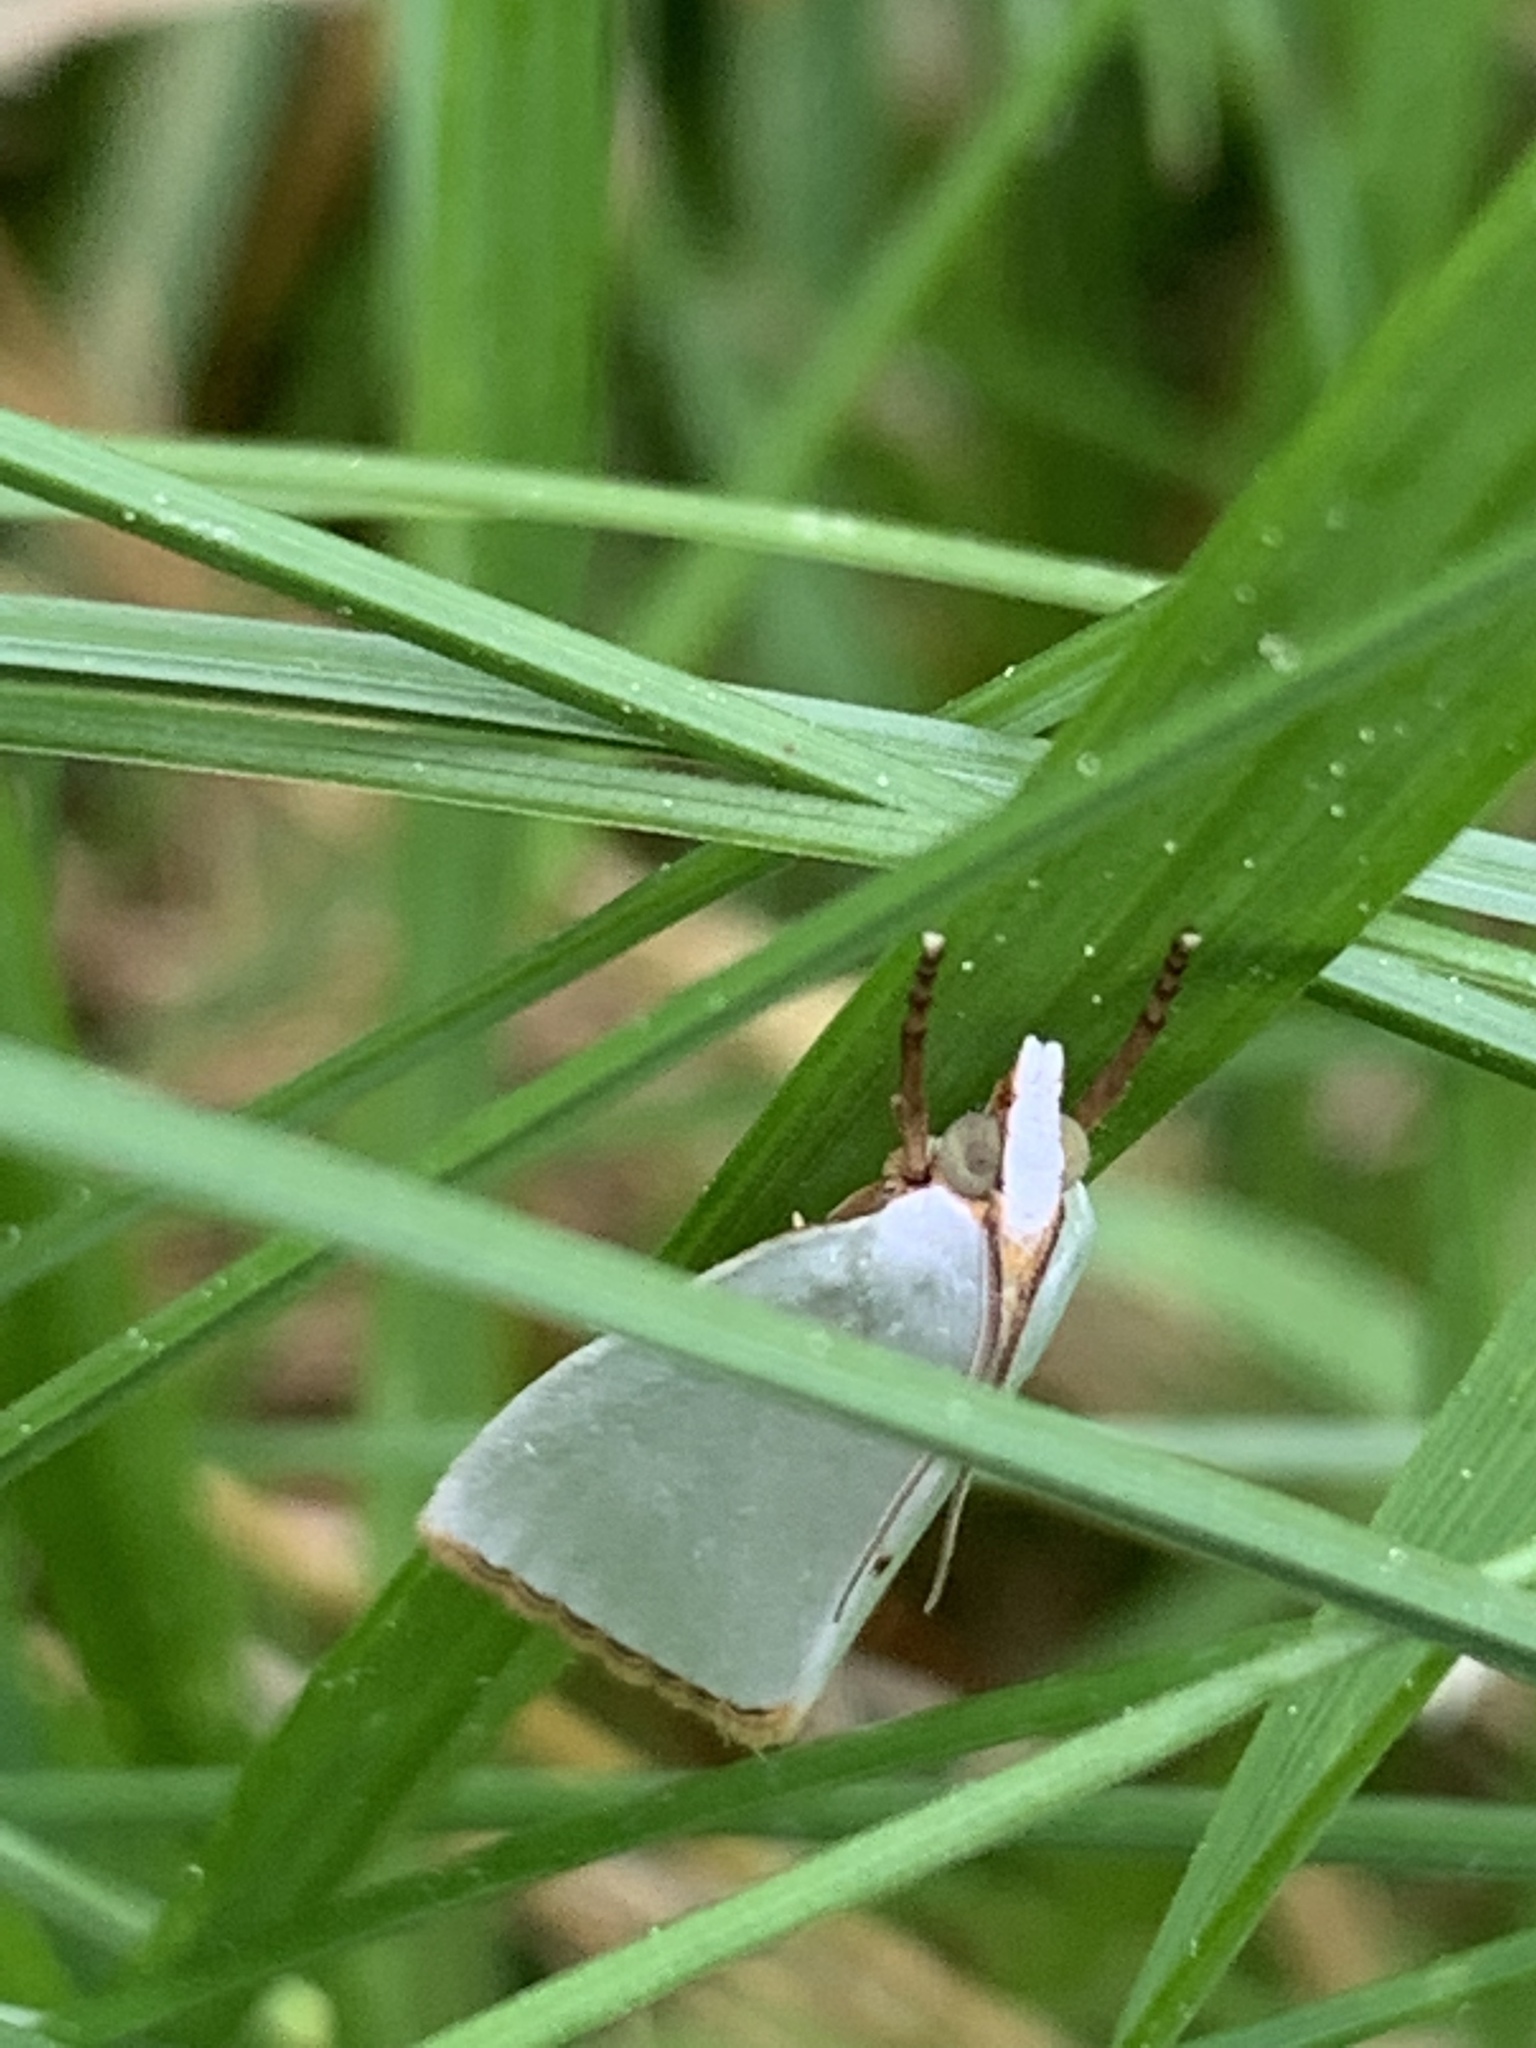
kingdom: Animalia
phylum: Arthropoda
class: Insecta
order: Lepidoptera
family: Crambidae
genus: Argyria
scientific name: Argyria nivalis
